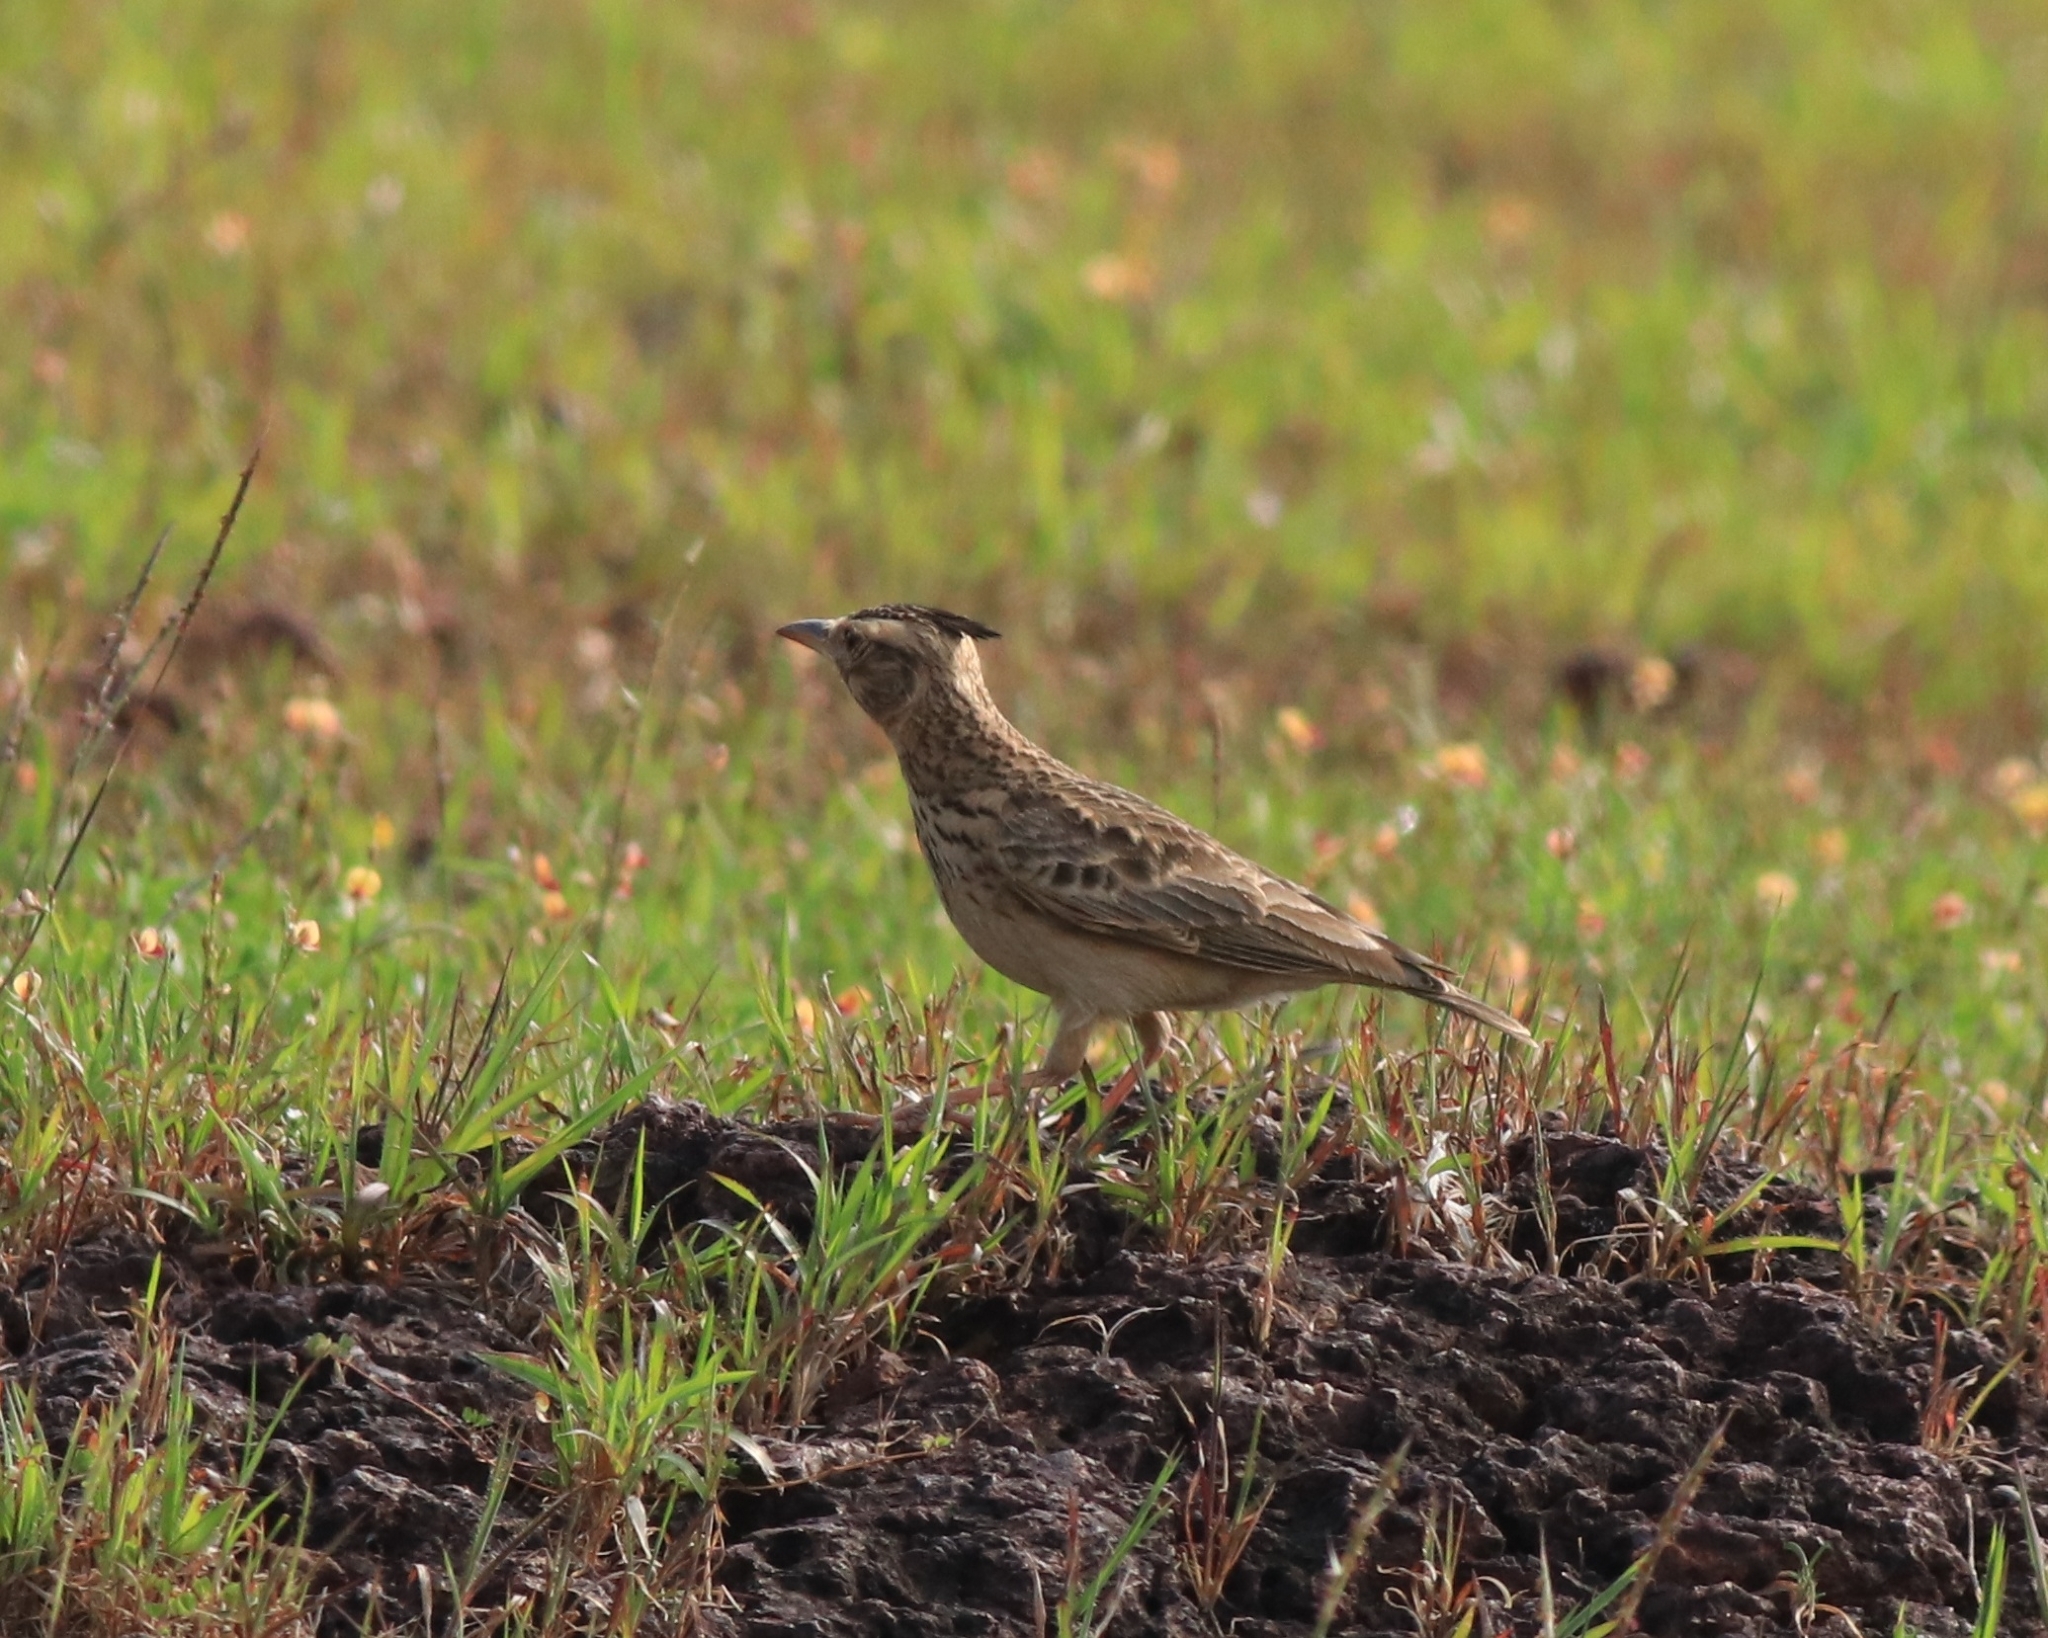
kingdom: Animalia
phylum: Chordata
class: Aves
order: Passeriformes
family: Alaudidae
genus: Galerida
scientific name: Galerida malabarica
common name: Malabar lark
